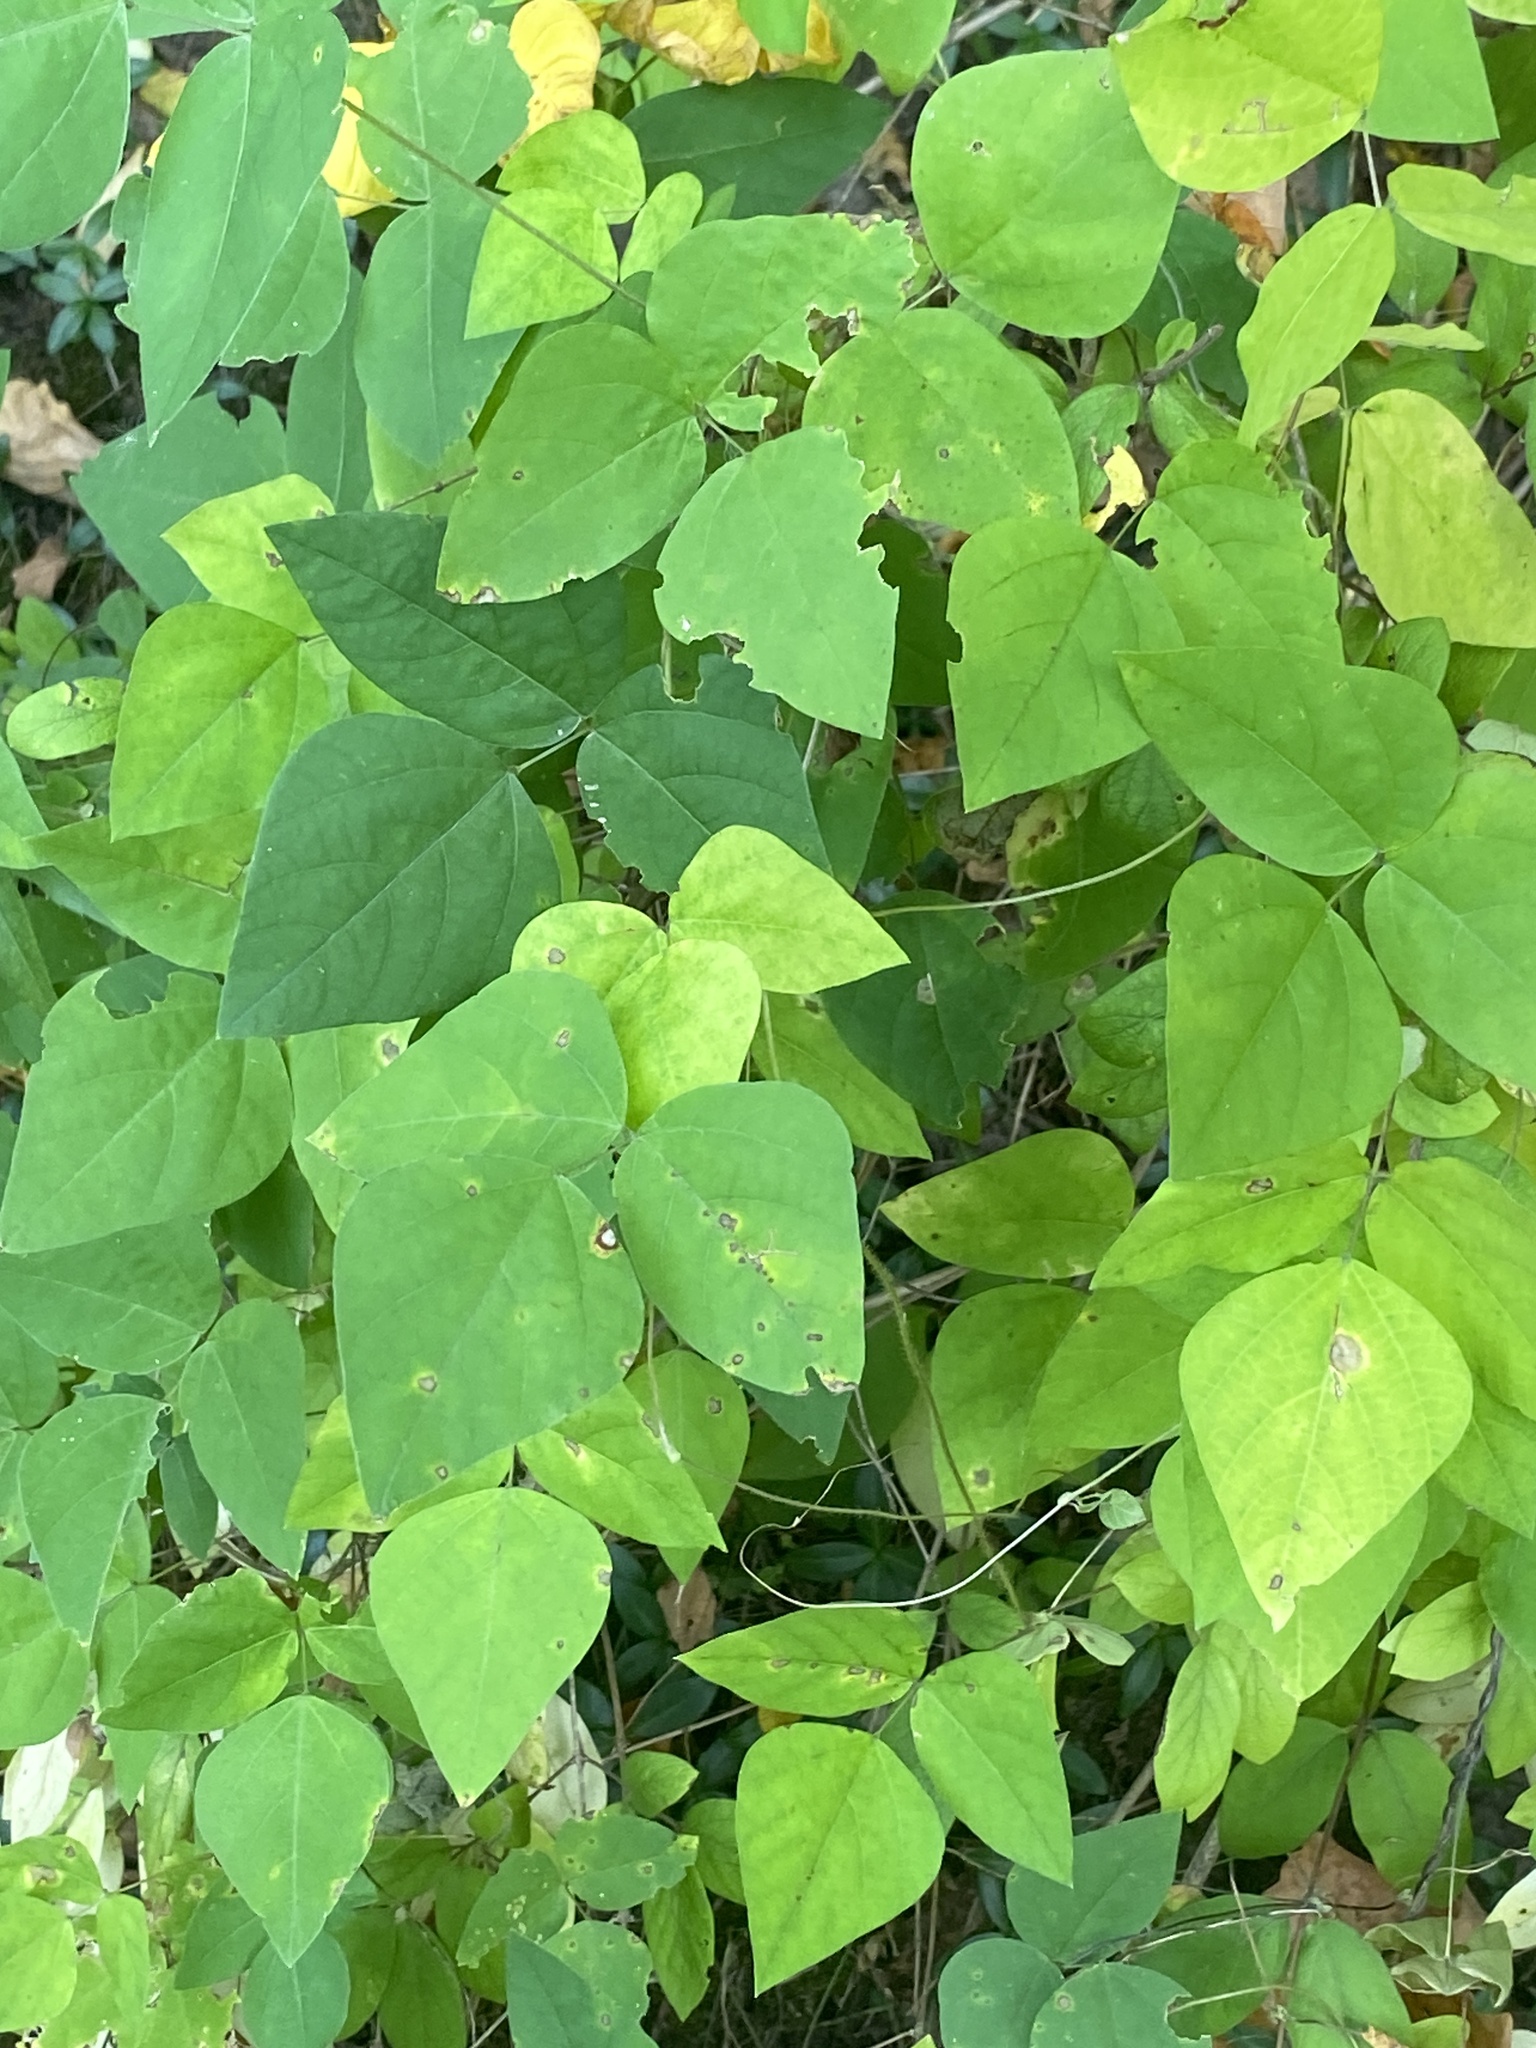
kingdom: Plantae
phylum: Tracheophyta
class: Magnoliopsida
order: Fabales
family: Fabaceae
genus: Amphicarpaea
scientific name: Amphicarpaea bracteata
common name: American hog peanut
